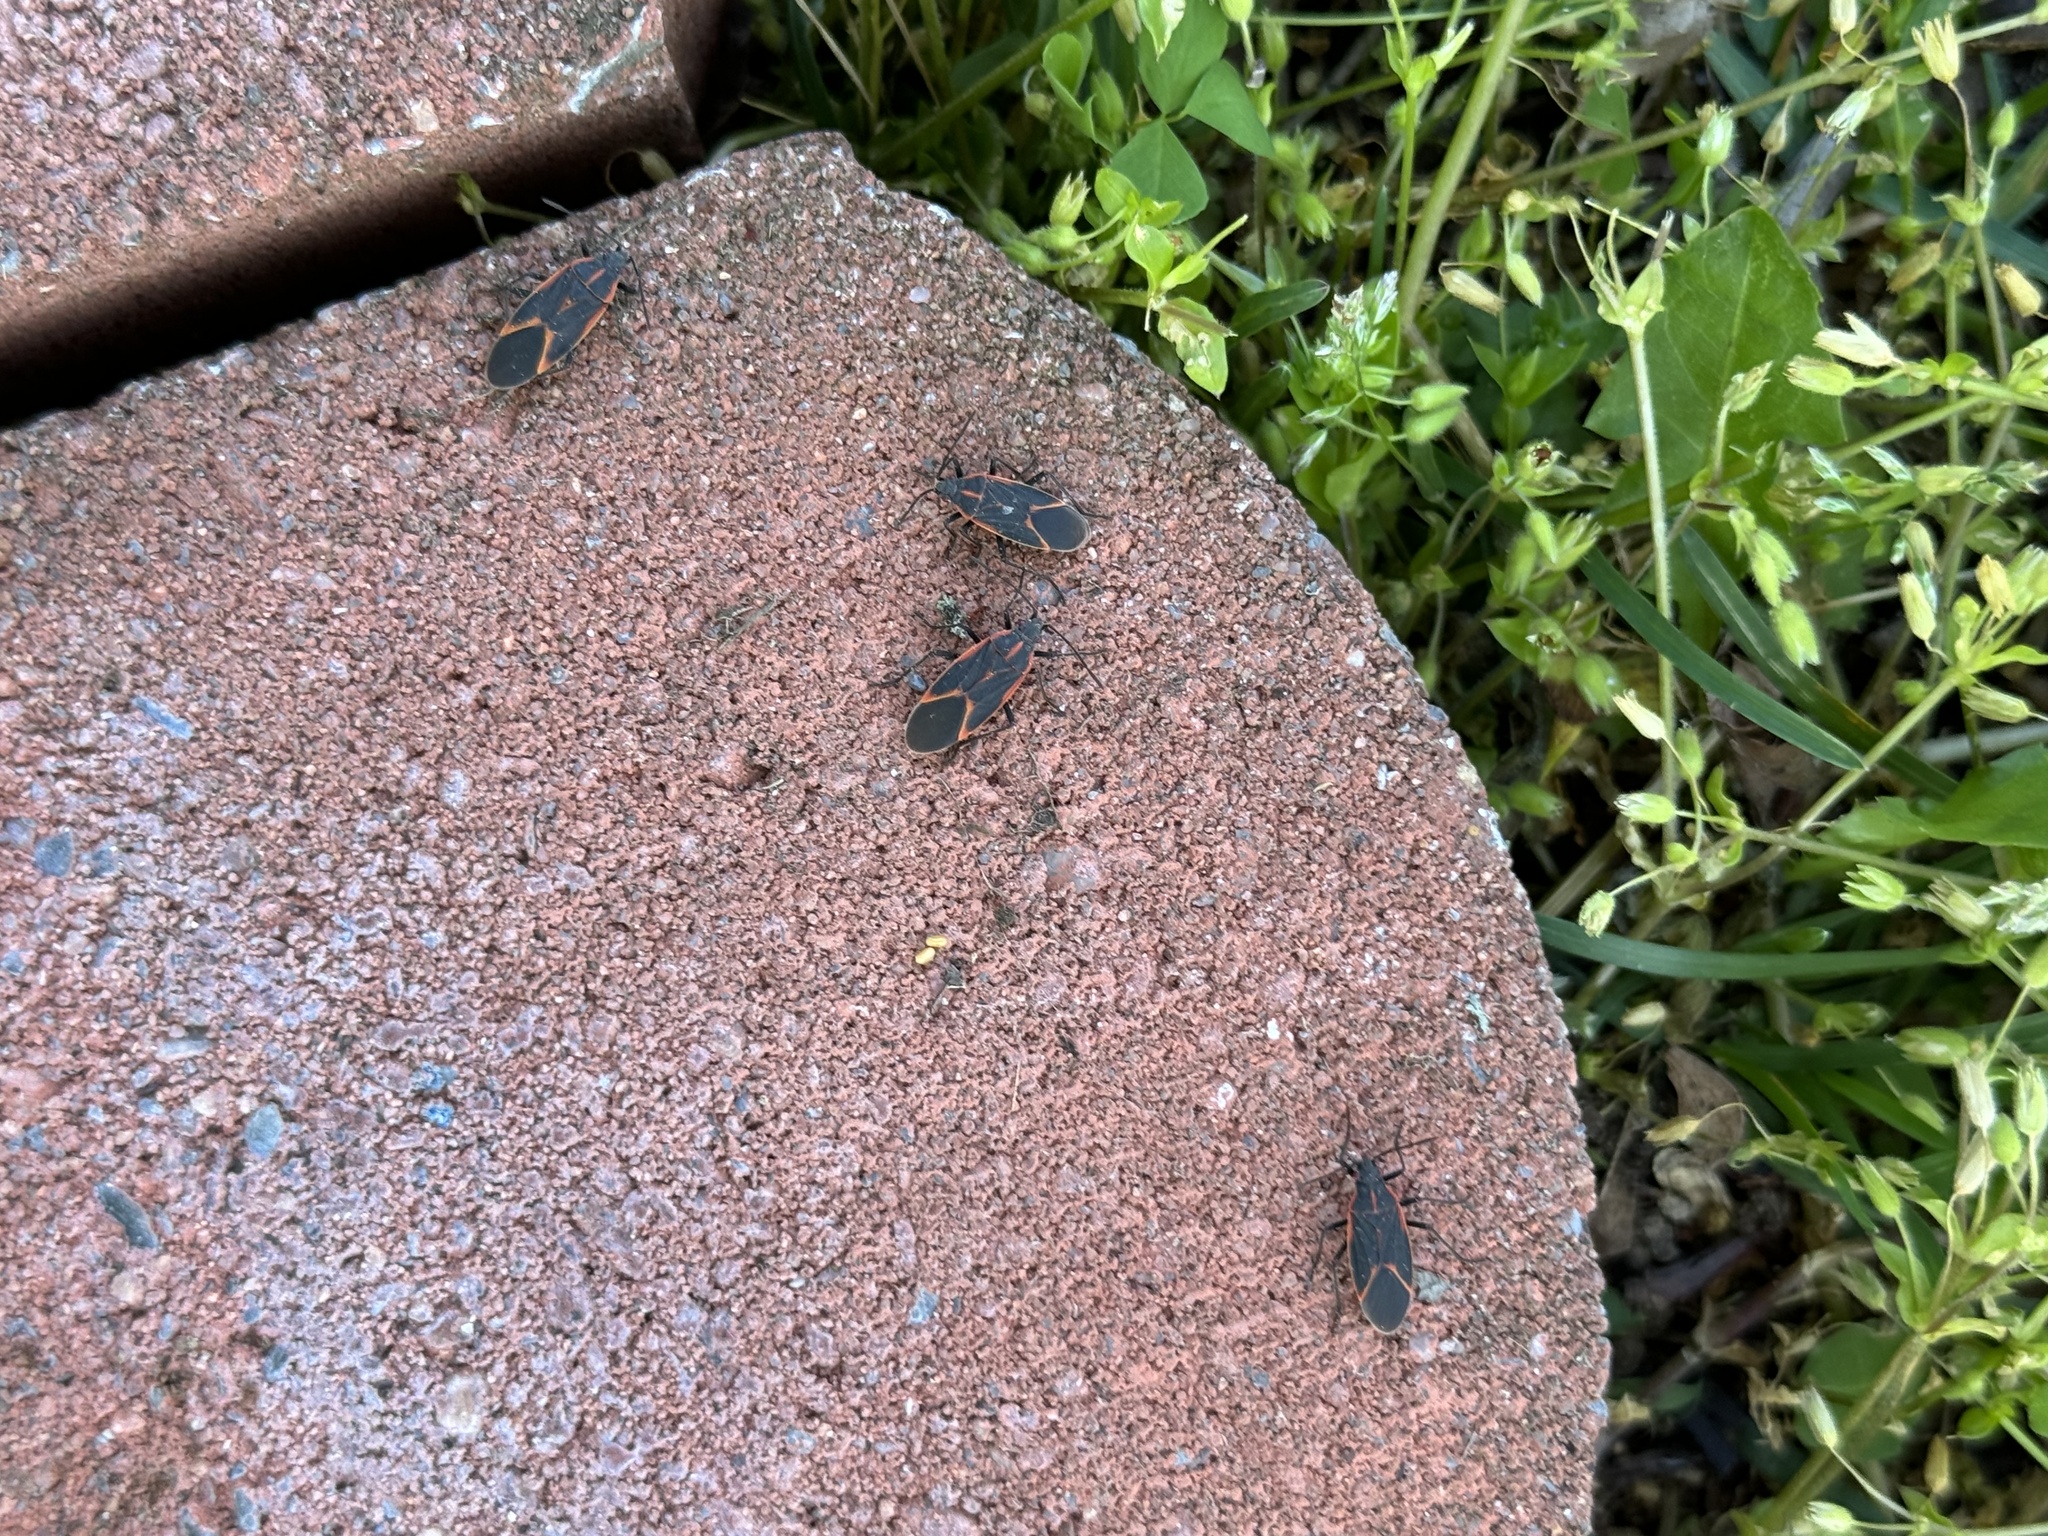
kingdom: Animalia
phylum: Arthropoda
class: Insecta
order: Hemiptera
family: Rhopalidae
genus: Boisea
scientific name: Boisea trivittata
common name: Boxelder bug
